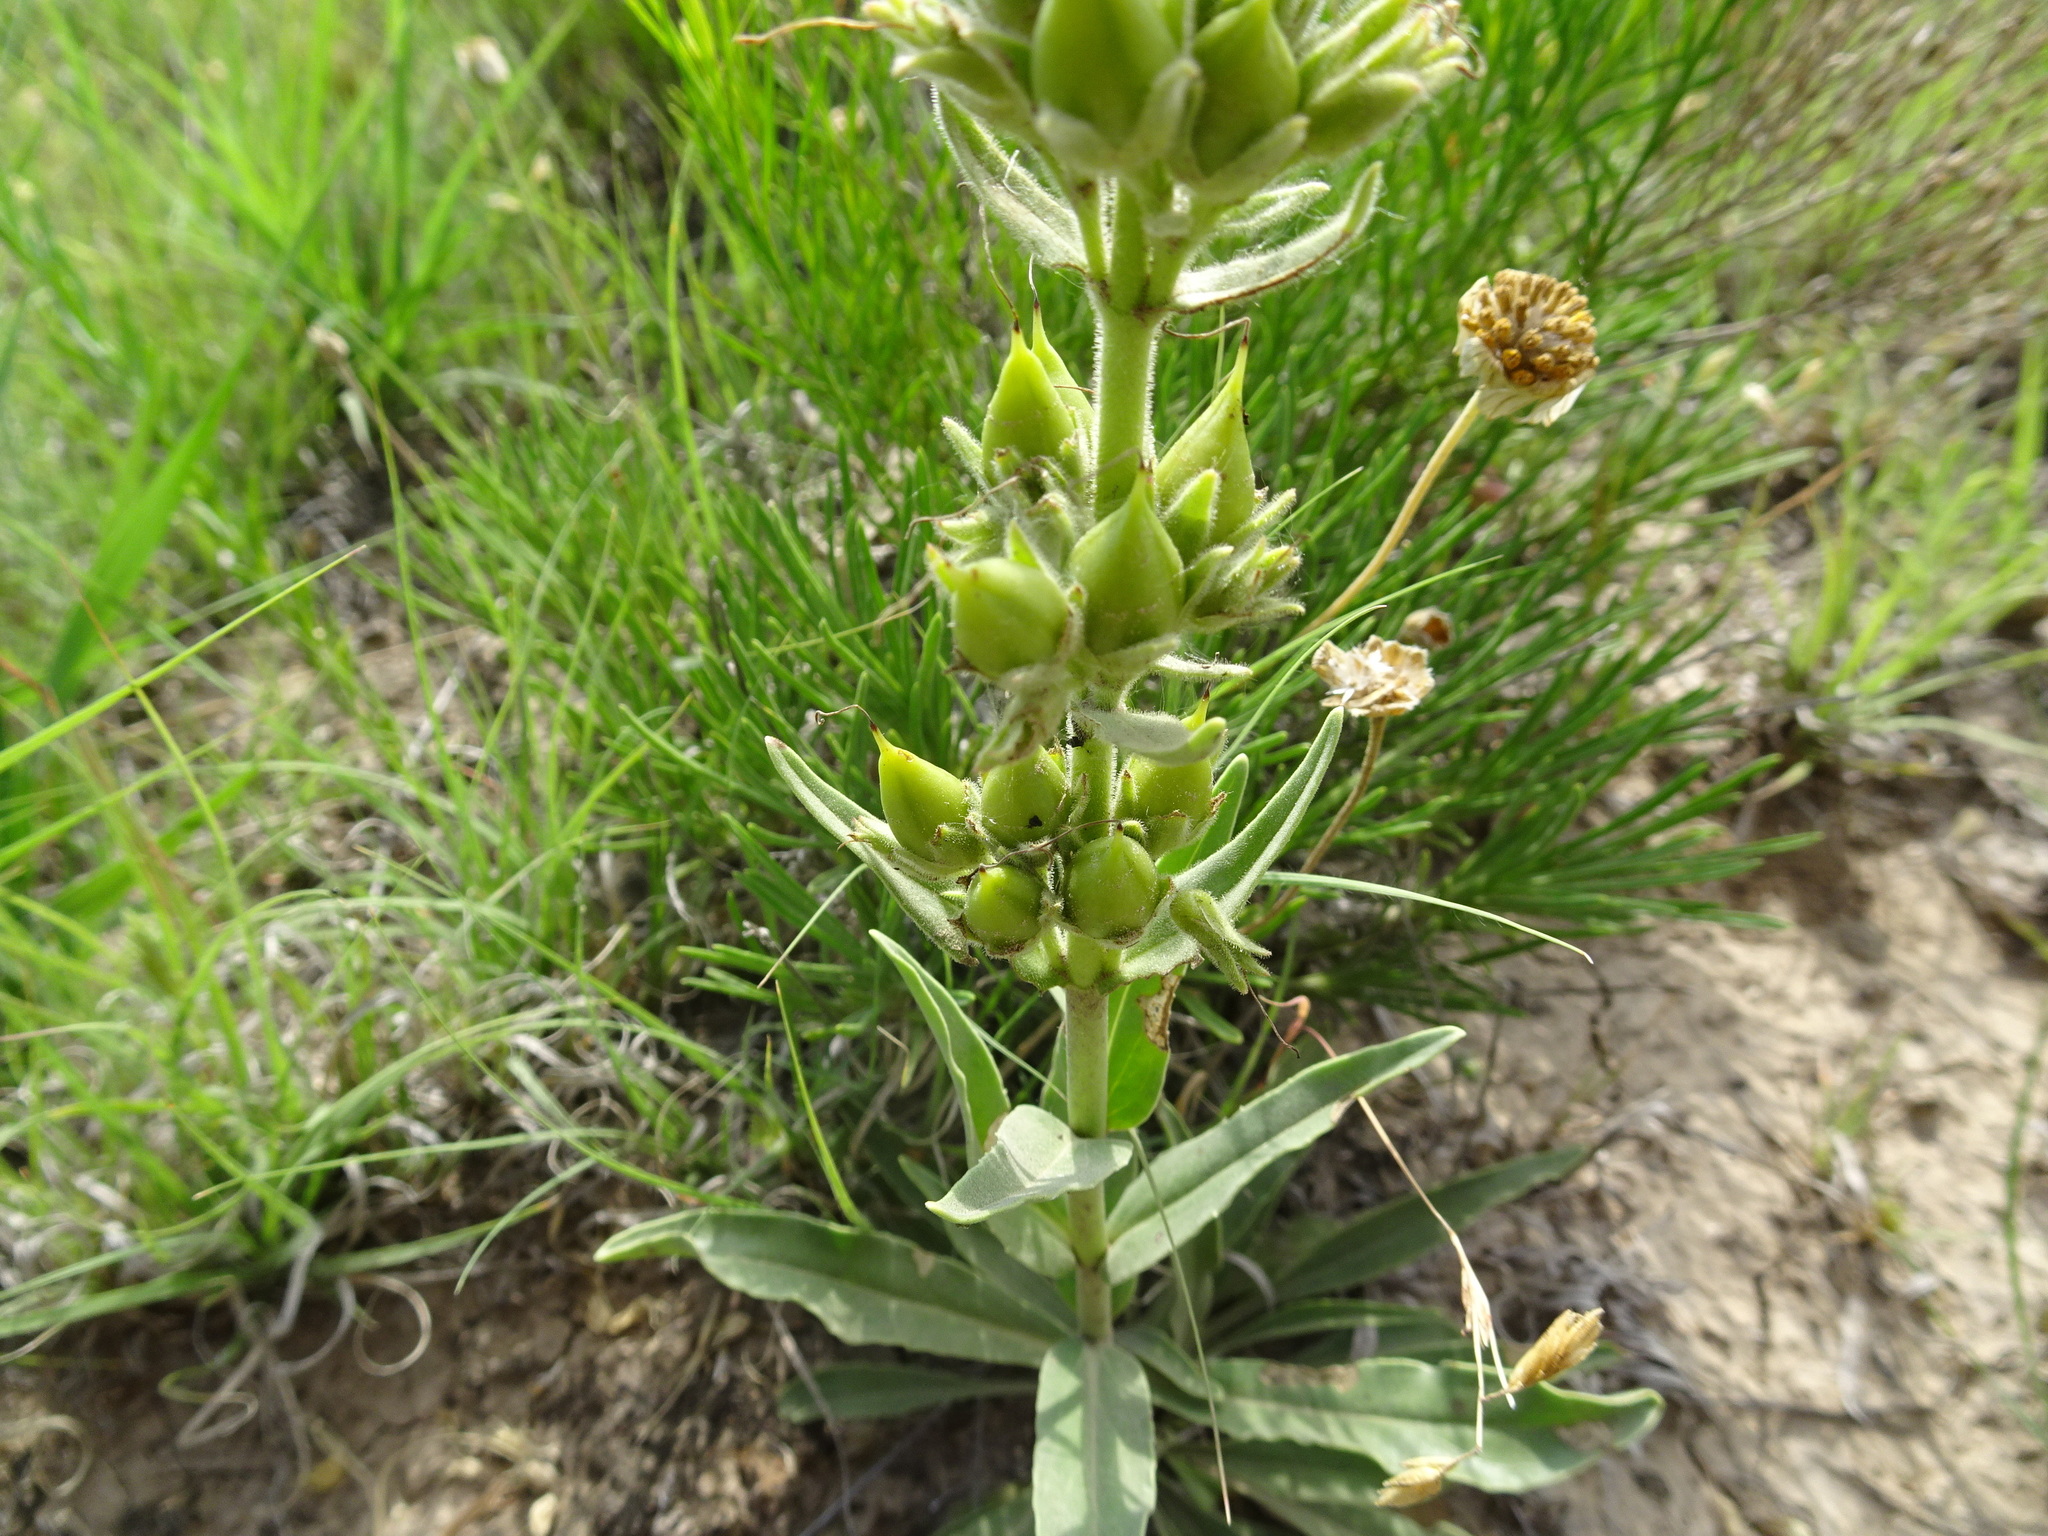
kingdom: Plantae
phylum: Tracheophyta
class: Magnoliopsida
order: Lamiales
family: Plantaginaceae
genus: Penstemon
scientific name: Penstemon albidus
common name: White beardtongue
